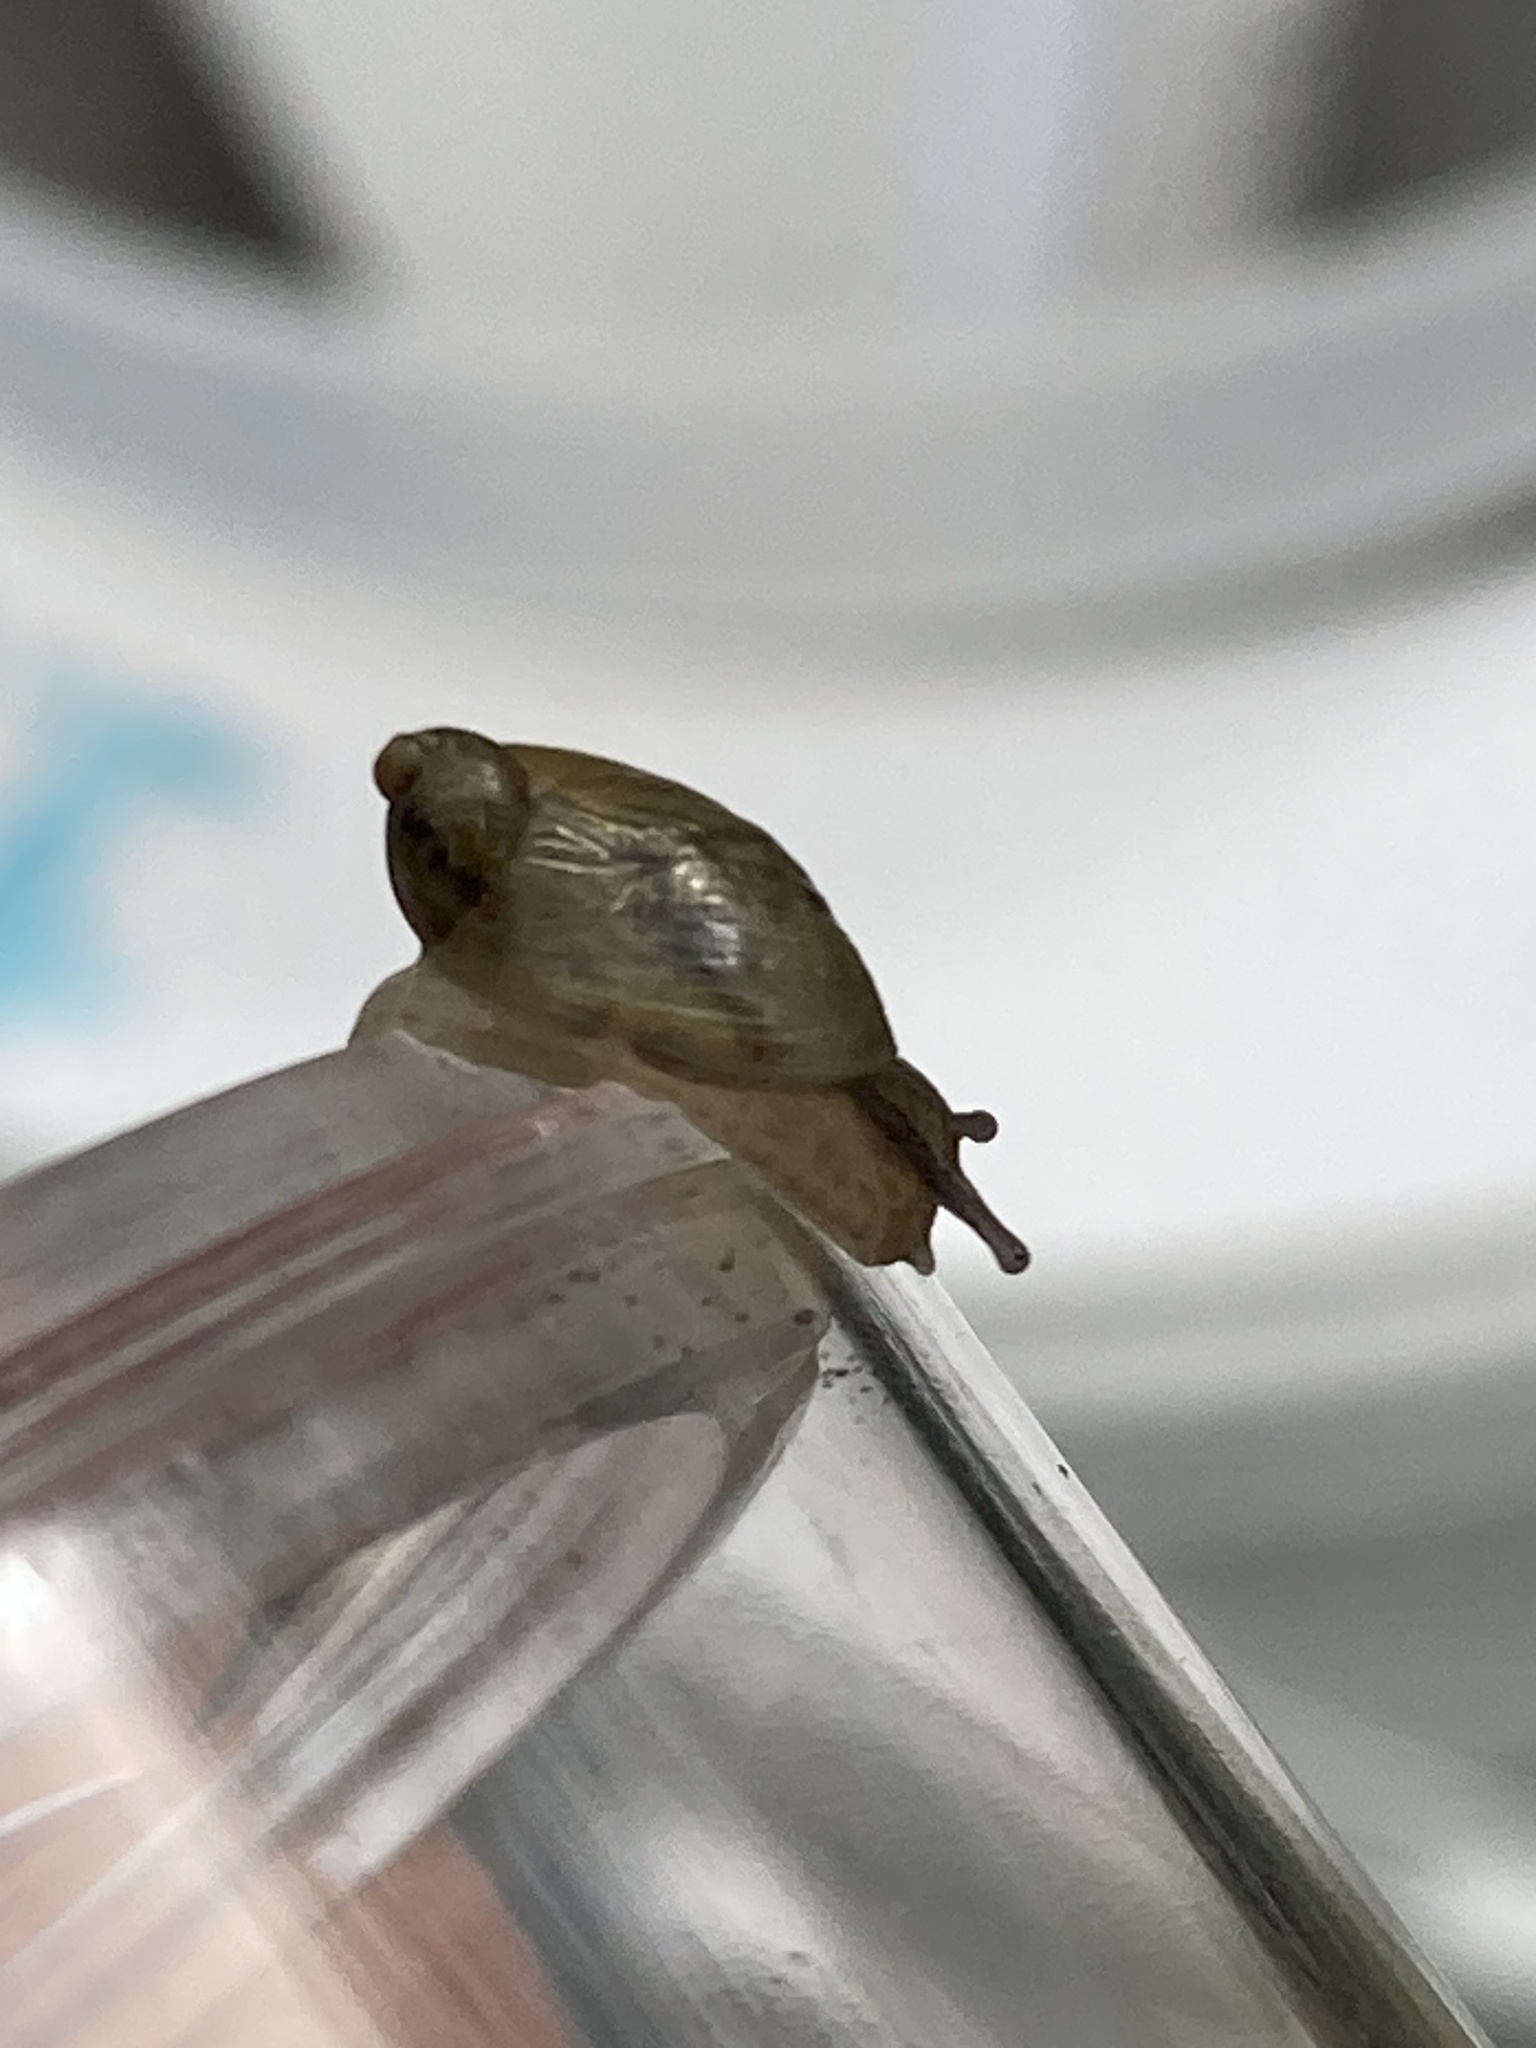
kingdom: Animalia
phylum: Mollusca
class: Gastropoda
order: Stylommatophora
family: Succineidae
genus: Succinea
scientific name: Succinea putris
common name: European ambersnail
